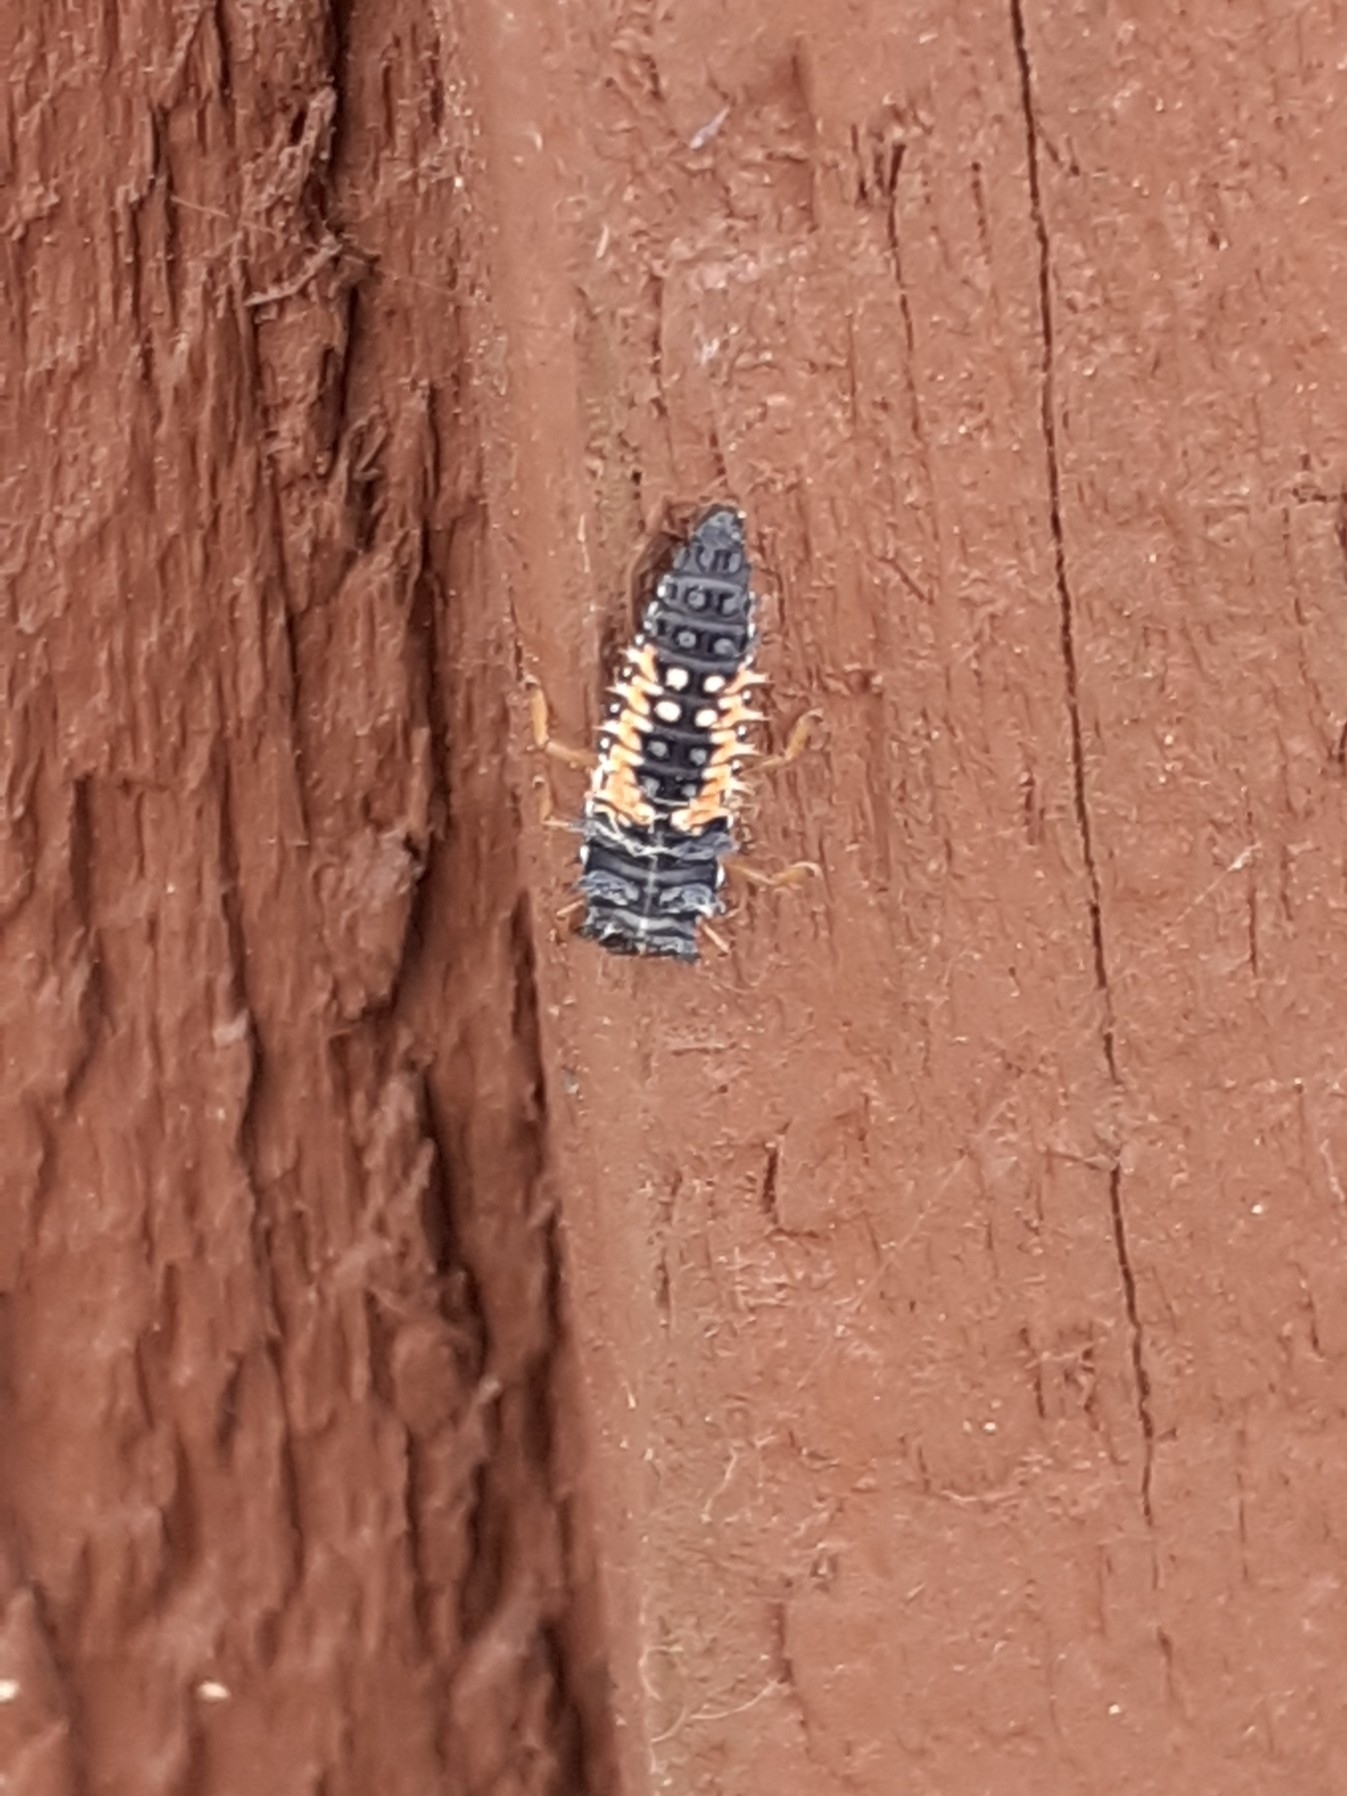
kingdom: Animalia
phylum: Arthropoda
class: Insecta
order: Coleoptera
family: Coccinellidae
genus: Harmonia
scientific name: Harmonia axyridis
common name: Harlequin ladybird
